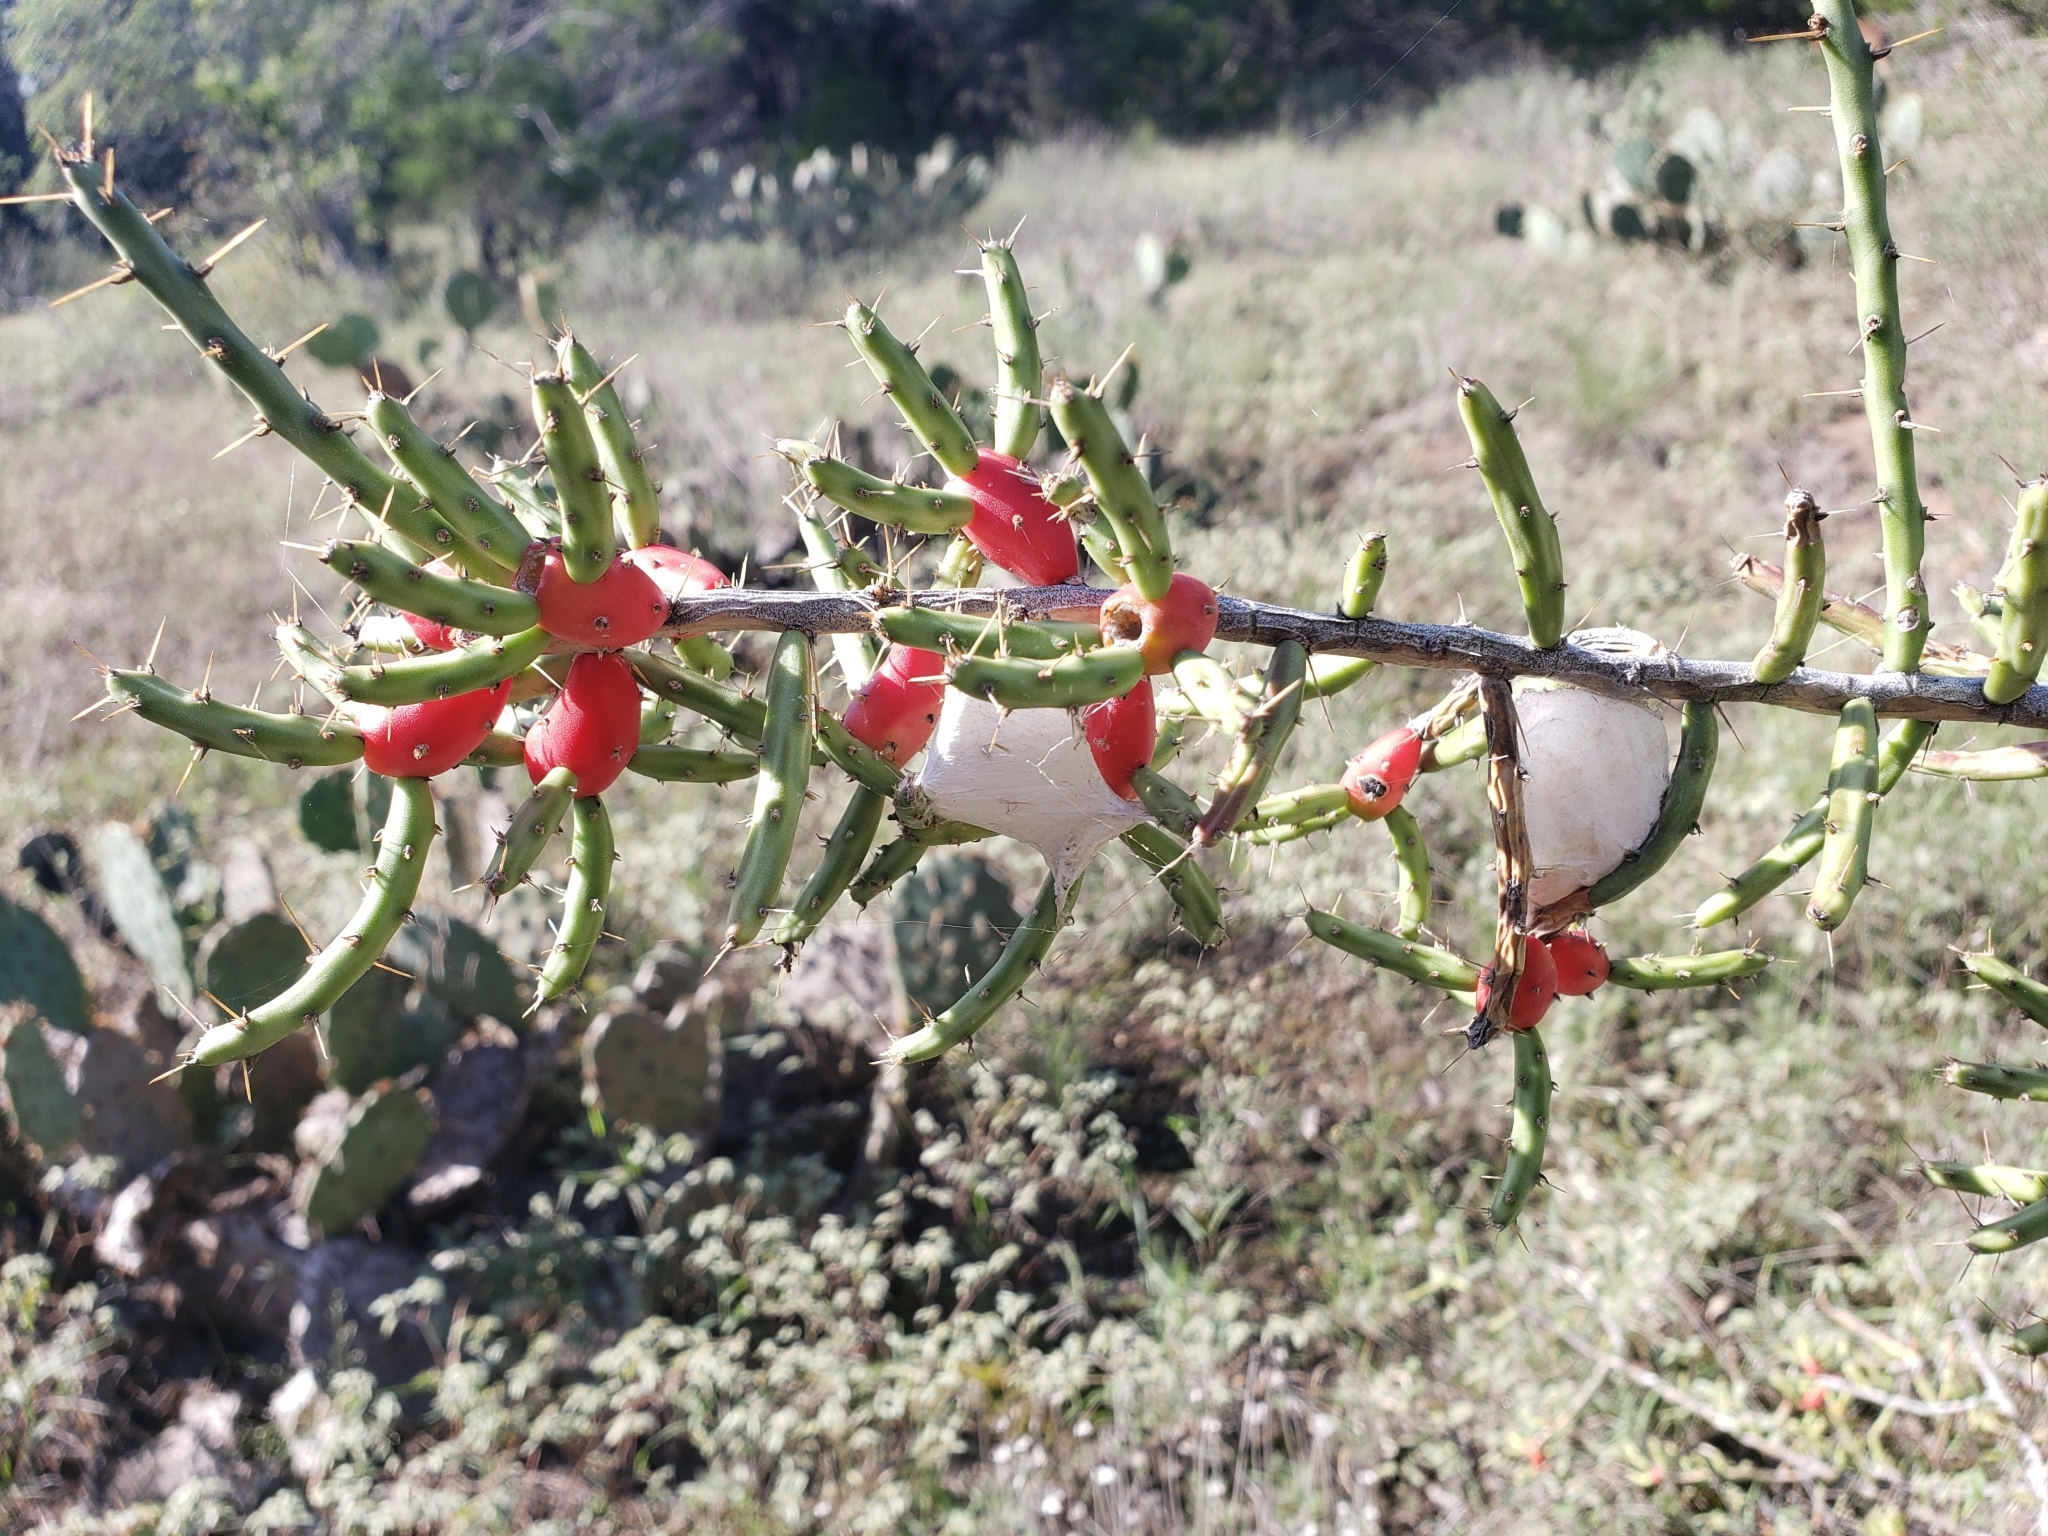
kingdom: Plantae
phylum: Tracheophyta
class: Magnoliopsida
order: Caryophyllales
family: Cactaceae
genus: Cylindropuntia
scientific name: Cylindropuntia leptocaulis
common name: Christmas cactus
